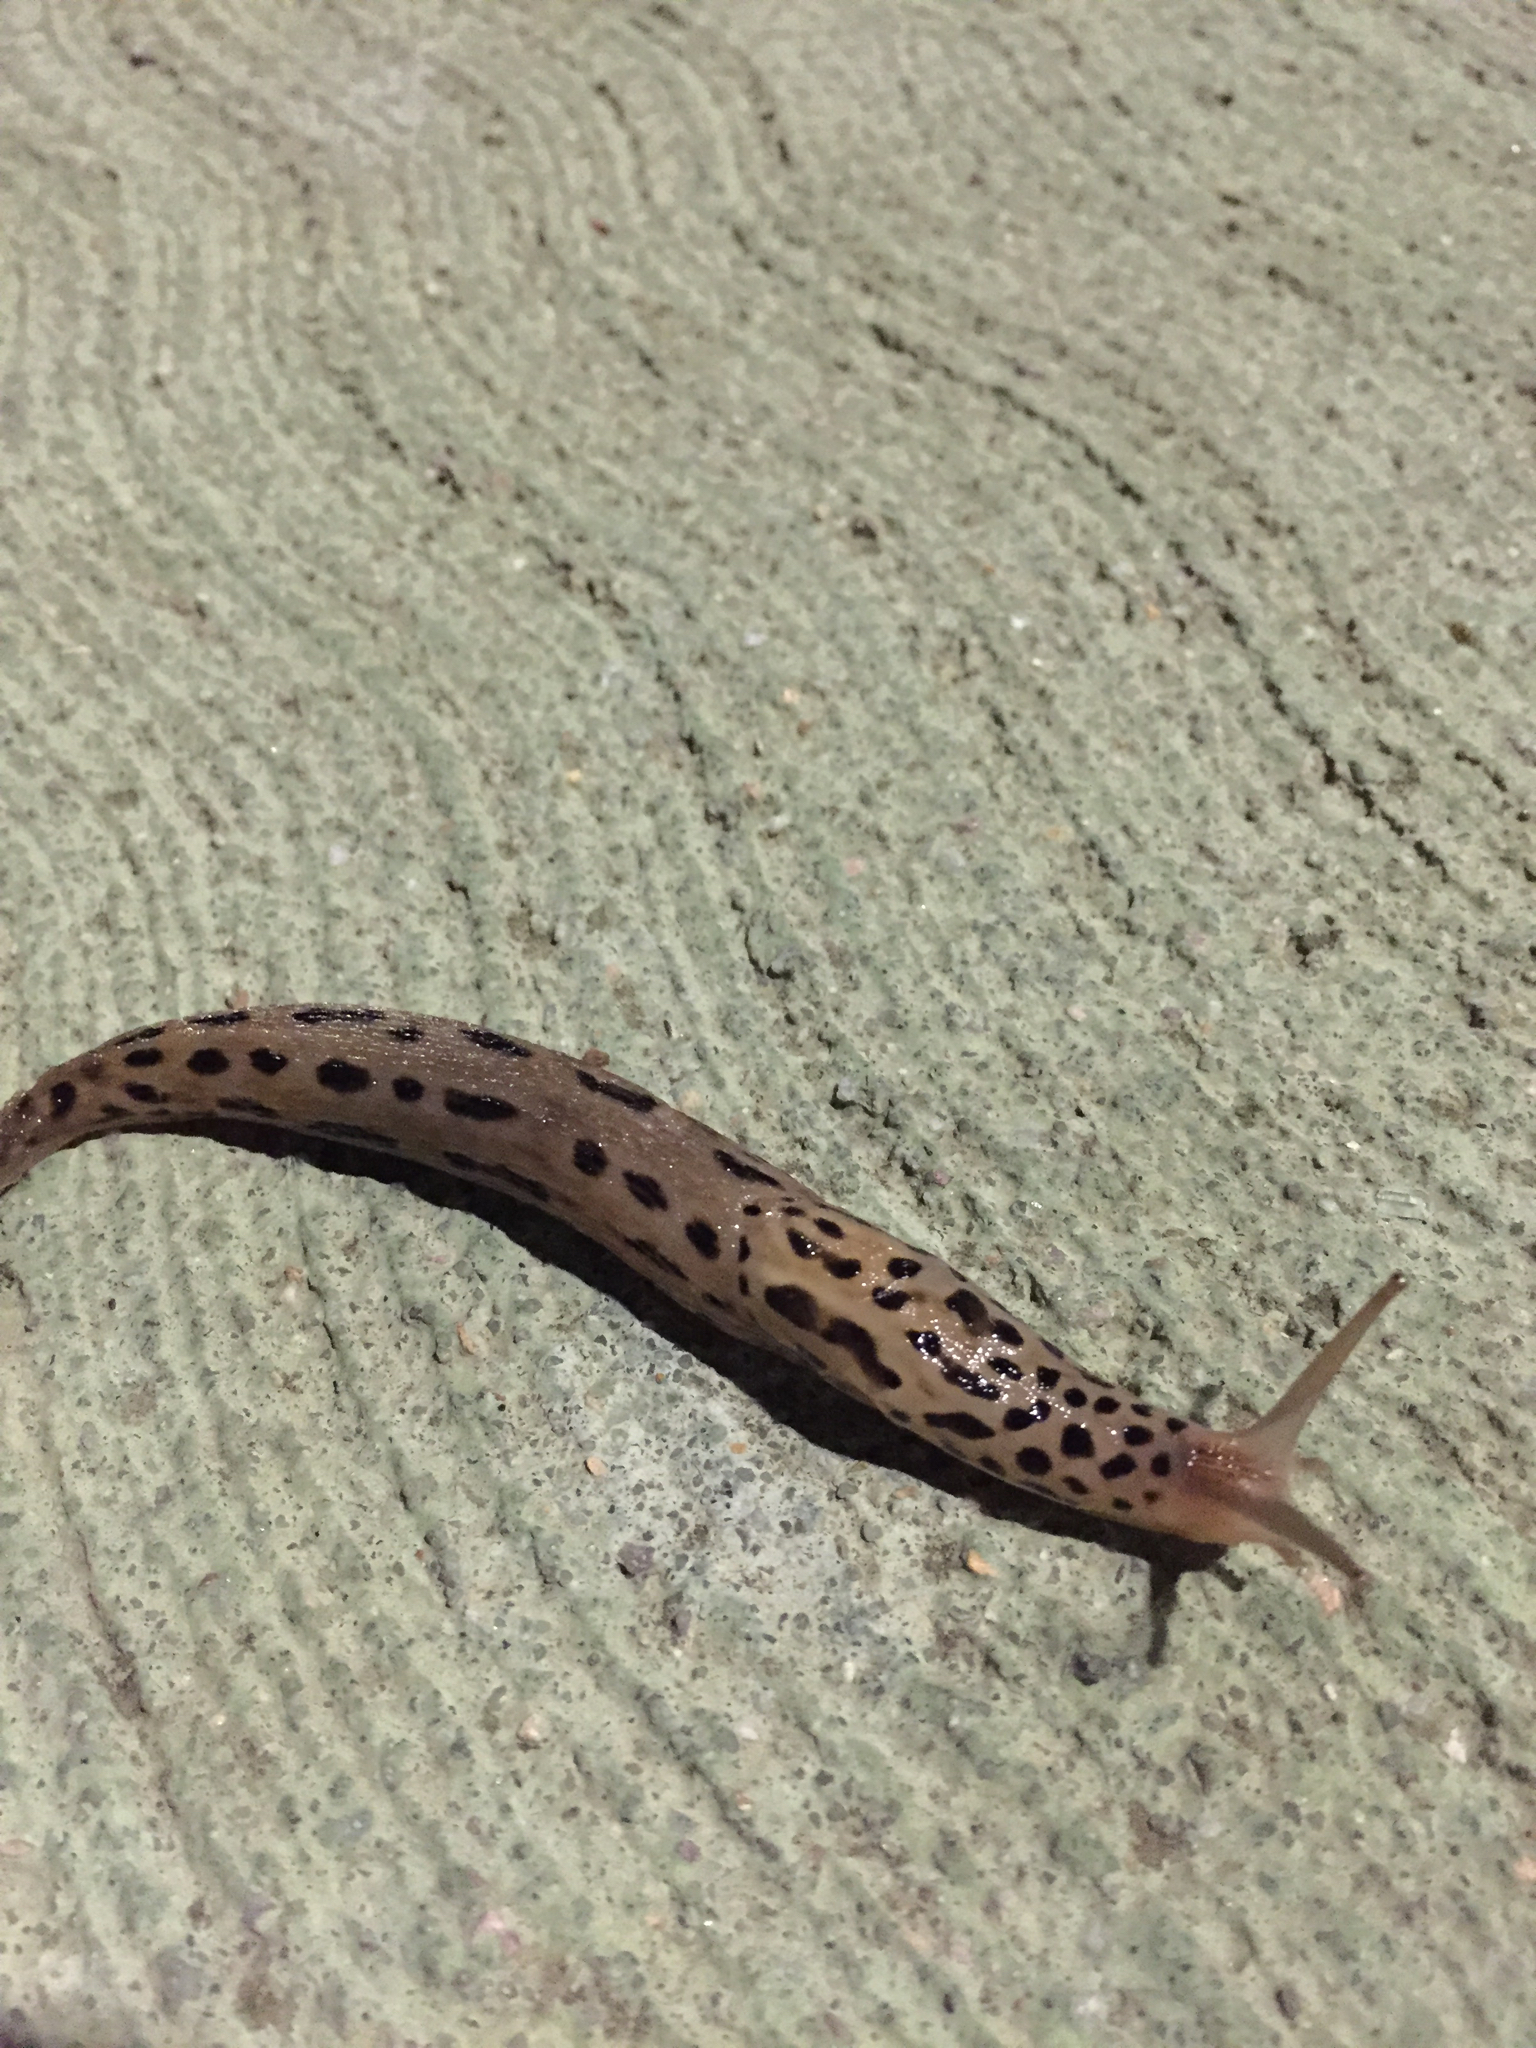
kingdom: Animalia
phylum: Mollusca
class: Gastropoda
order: Stylommatophora
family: Limacidae
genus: Limax
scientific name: Limax maximus
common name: Great grey slug
